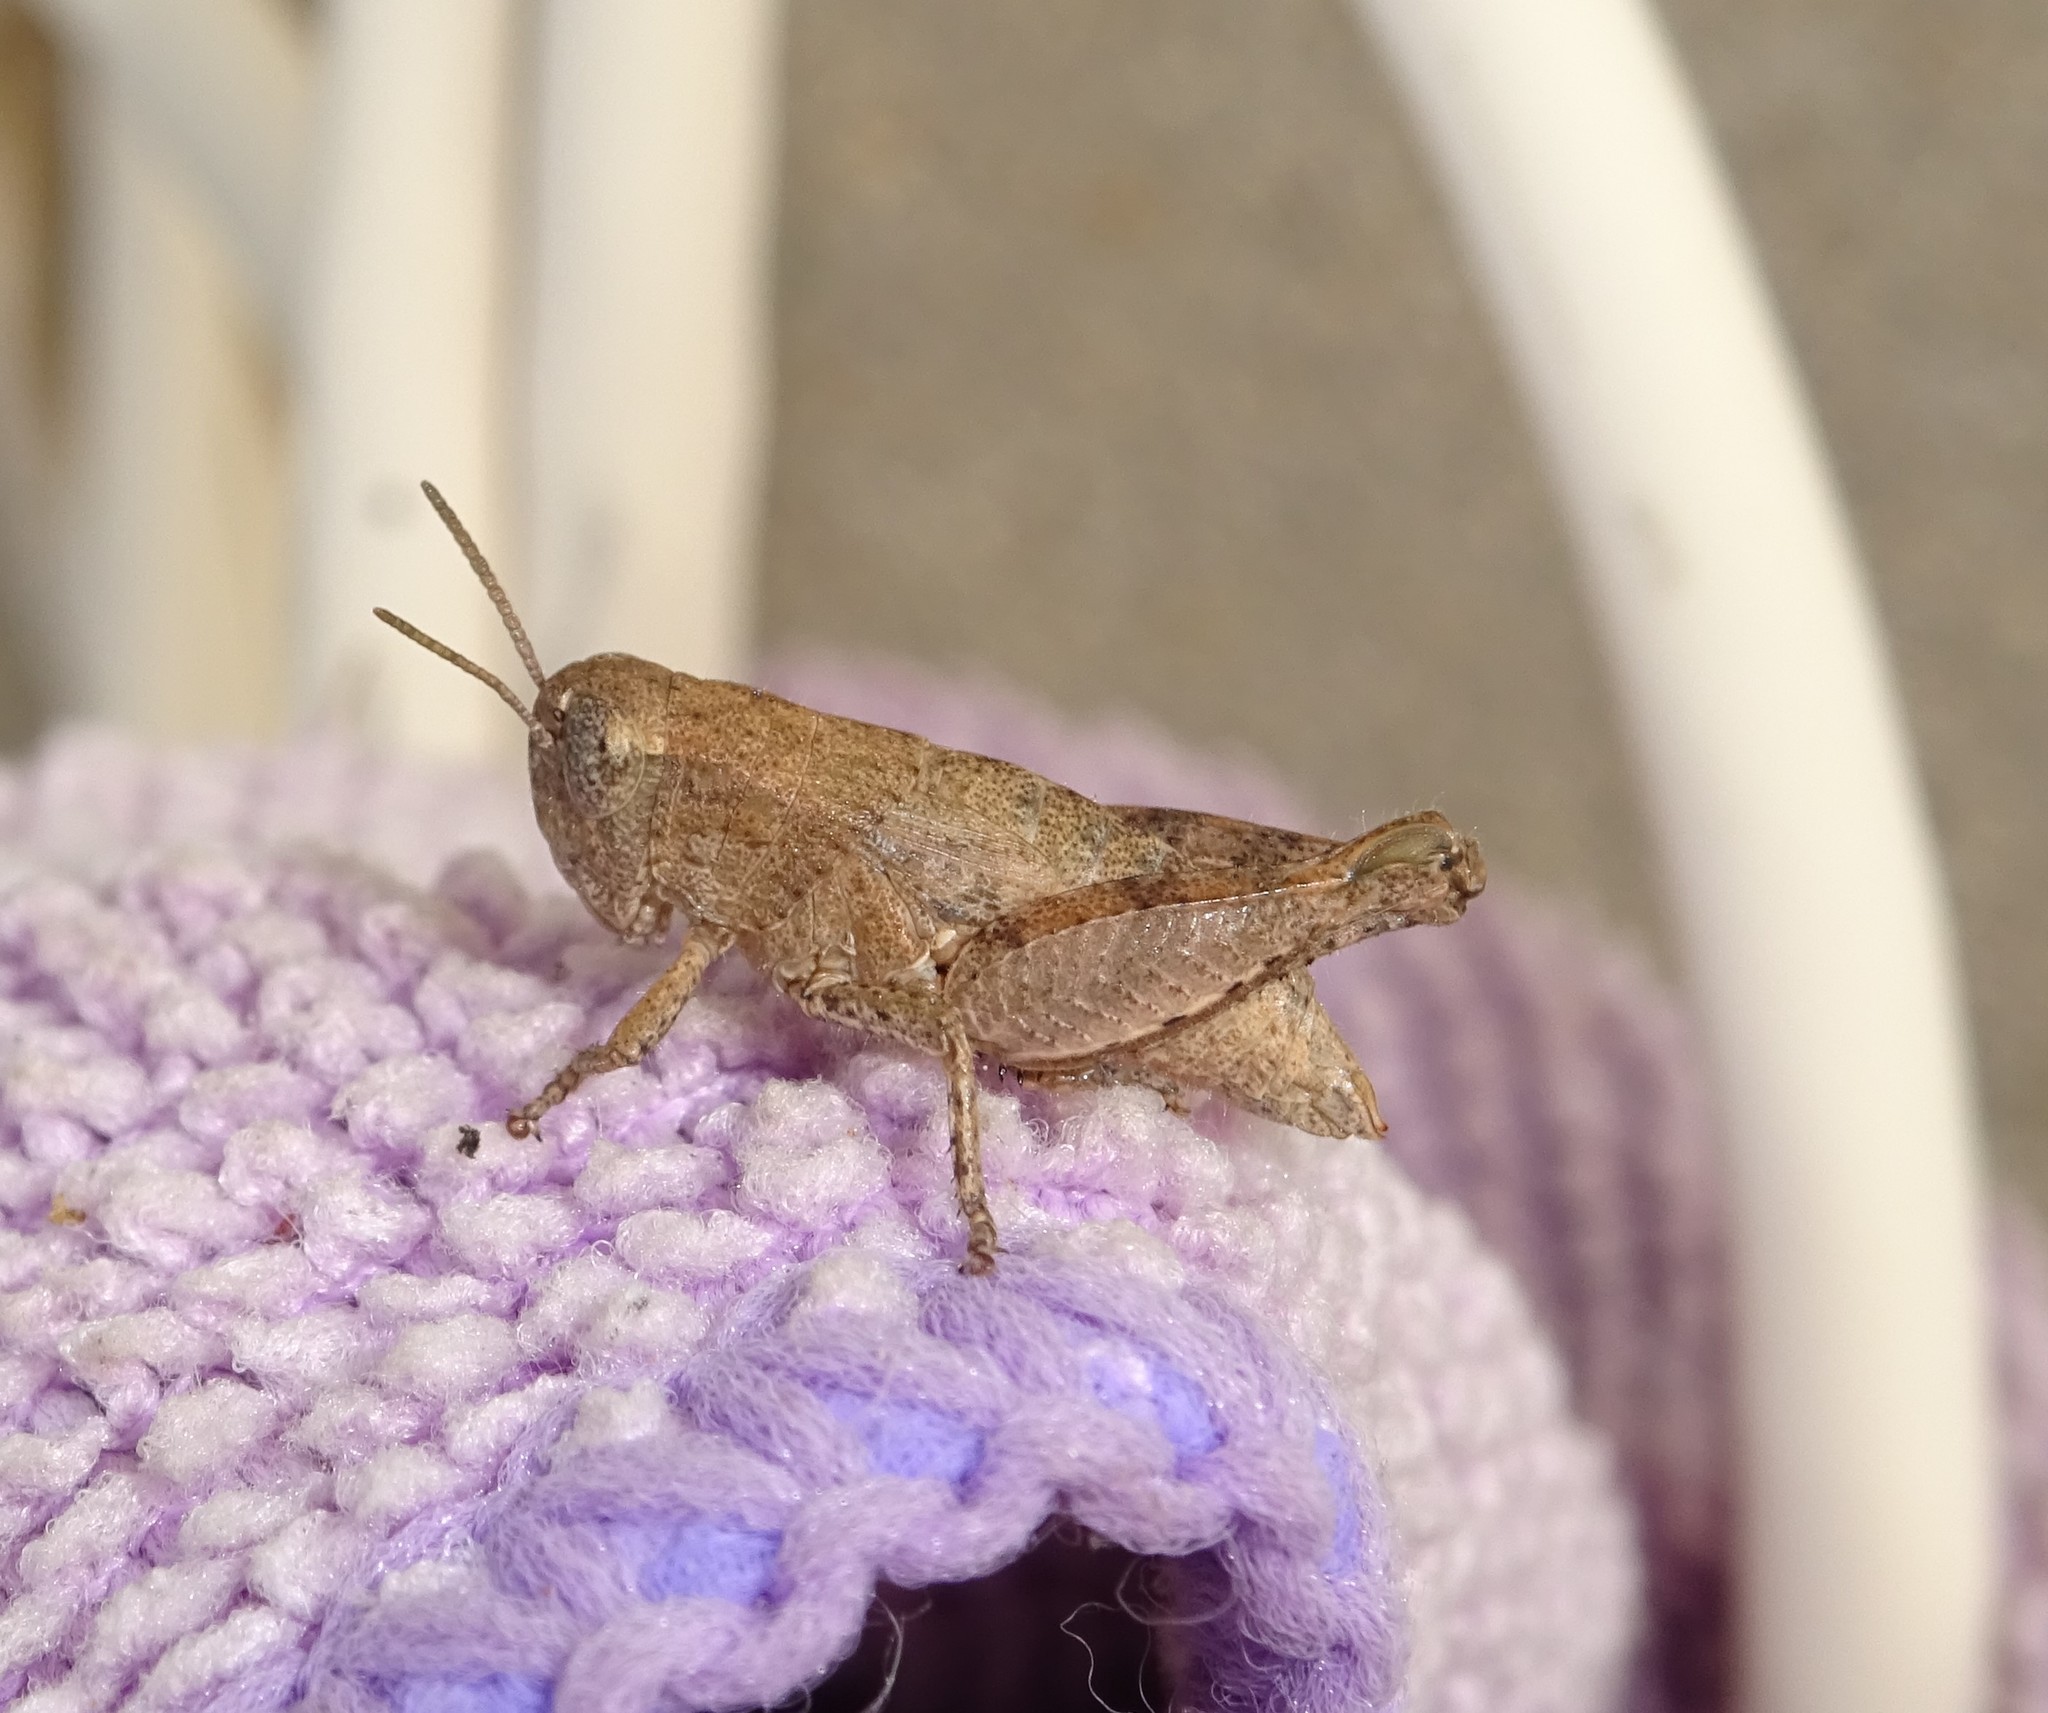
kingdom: Animalia
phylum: Arthropoda
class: Insecta
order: Orthoptera
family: Acrididae
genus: Pezotettix
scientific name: Pezotettix giornae
